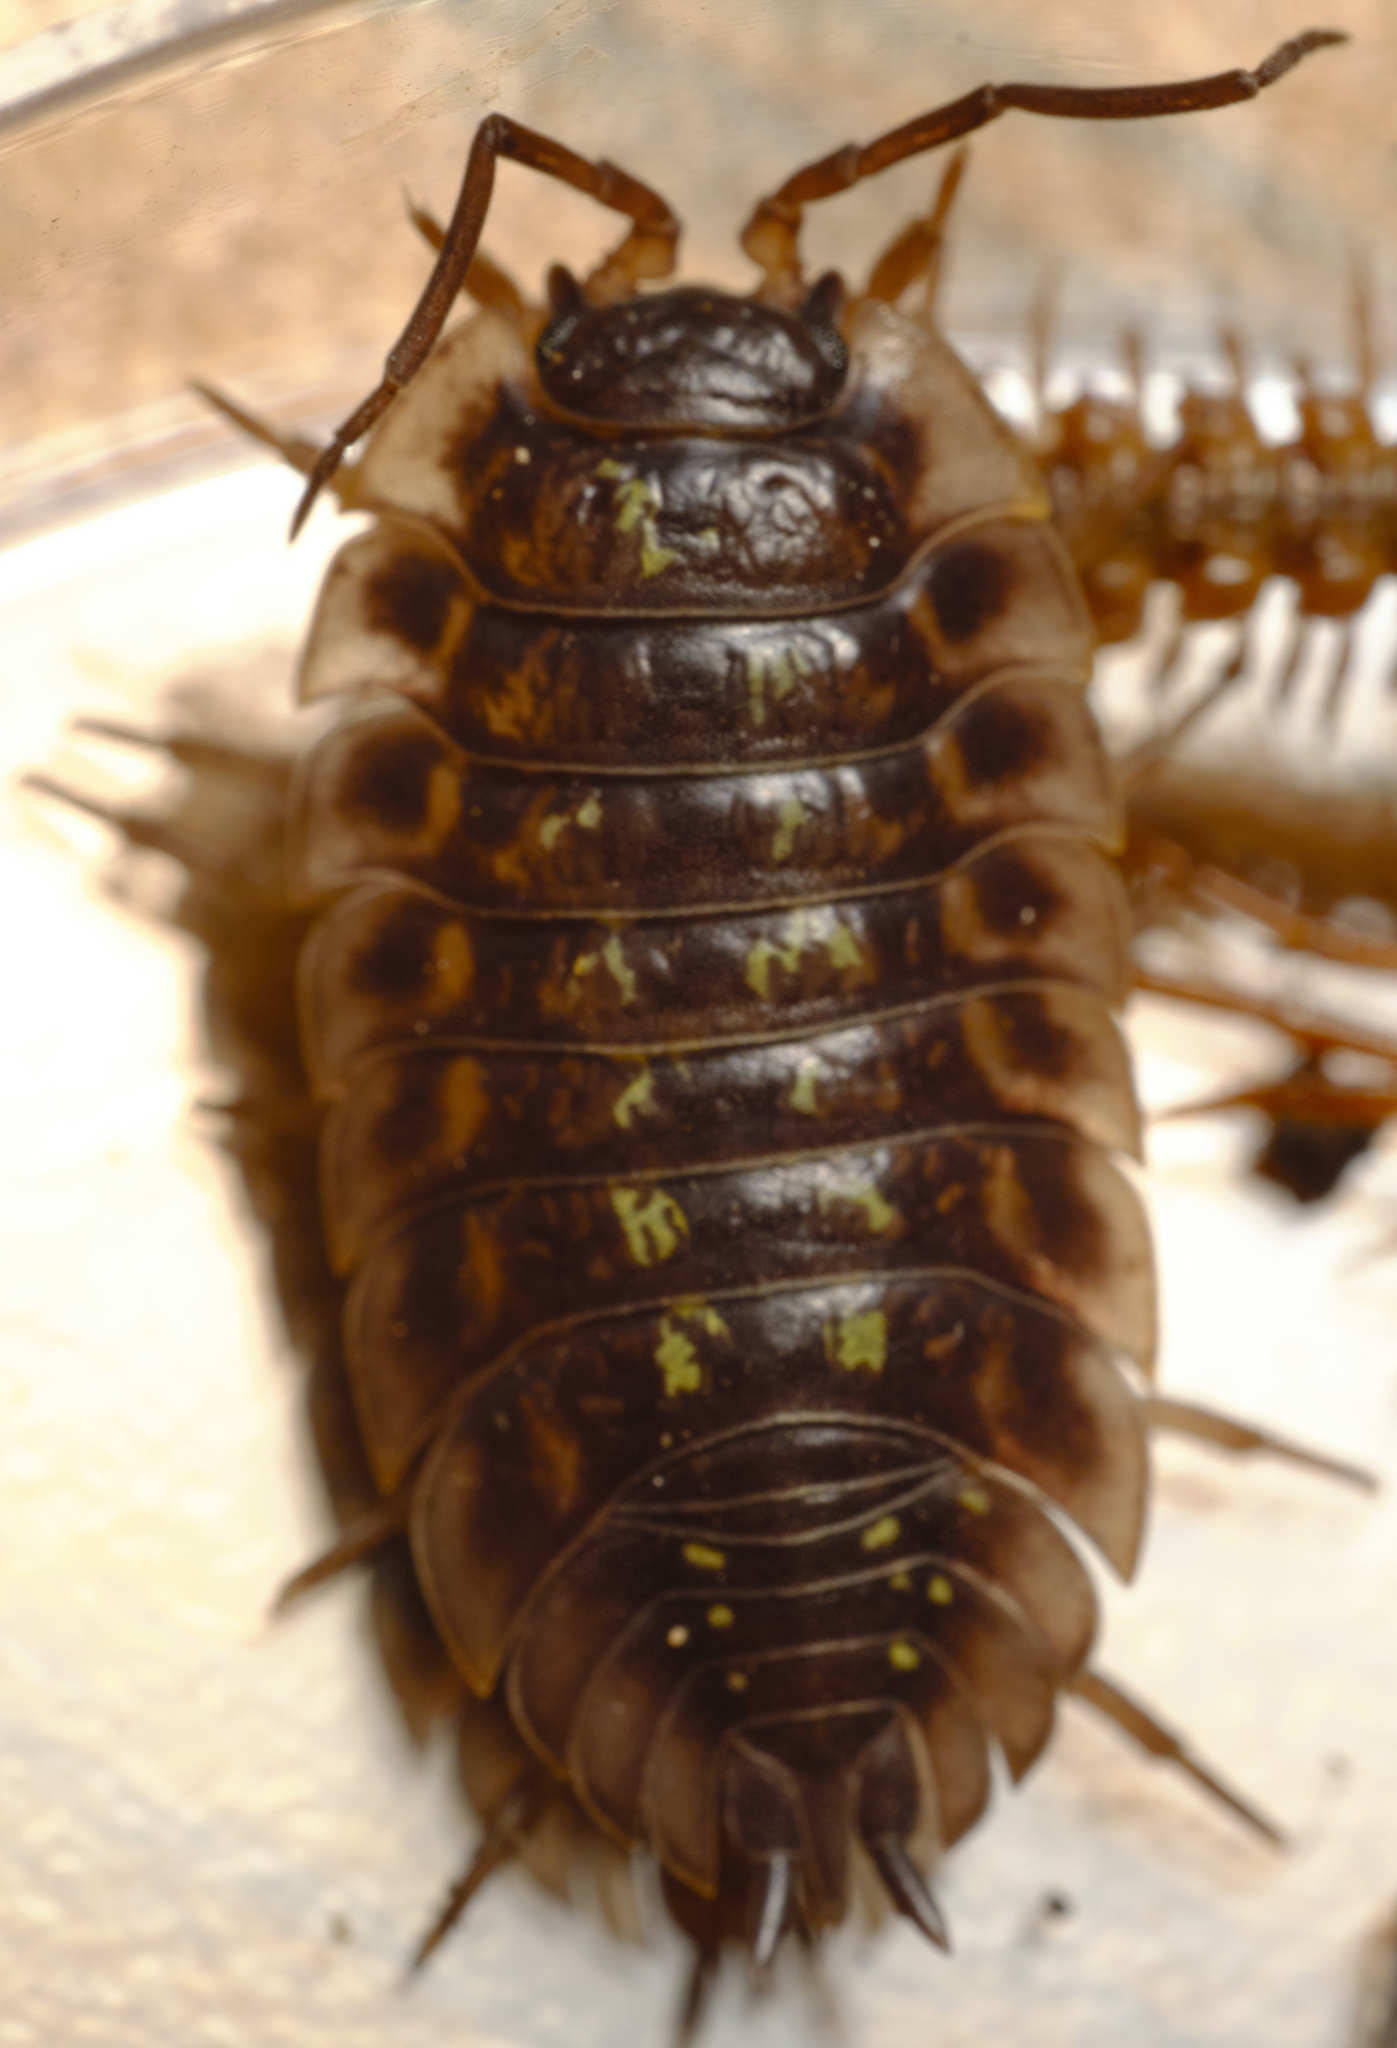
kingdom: Animalia
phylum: Arthropoda
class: Malacostraca
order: Isopoda
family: Oniscidae
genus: Oniscus
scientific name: Oniscus asellus
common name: Common shiny woodlouse
